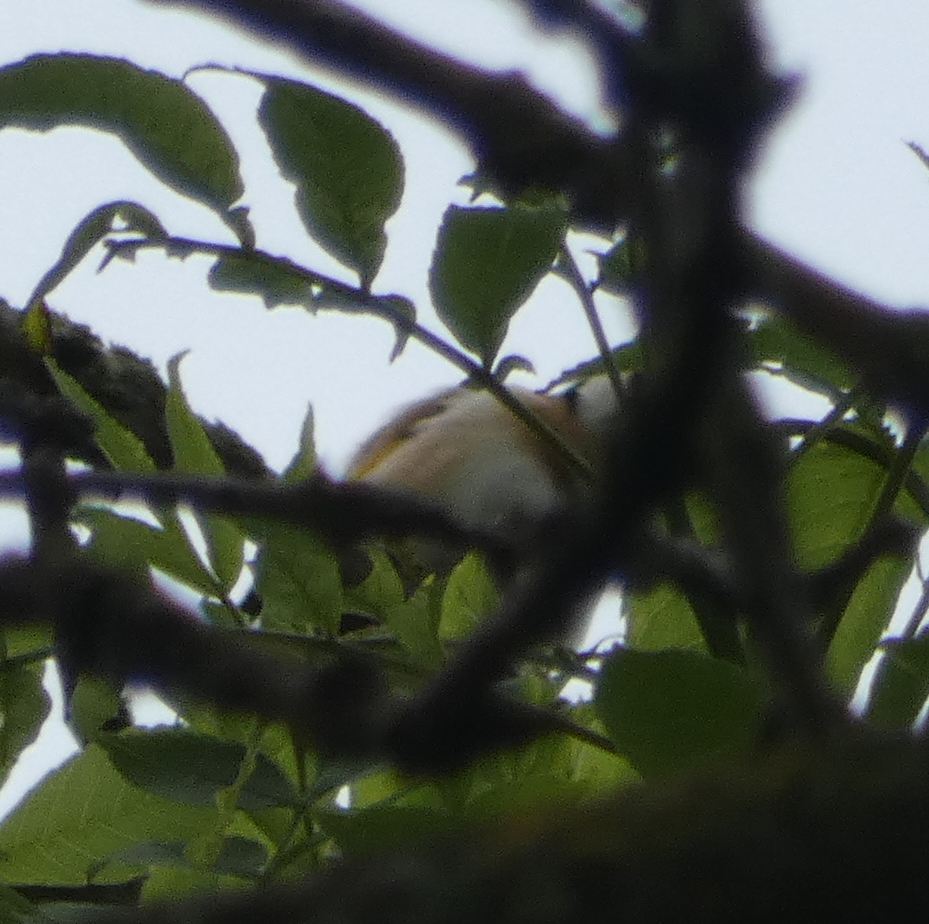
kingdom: Animalia
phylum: Chordata
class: Aves
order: Passeriformes
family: Fringillidae
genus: Carduelis
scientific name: Carduelis carduelis
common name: European goldfinch
